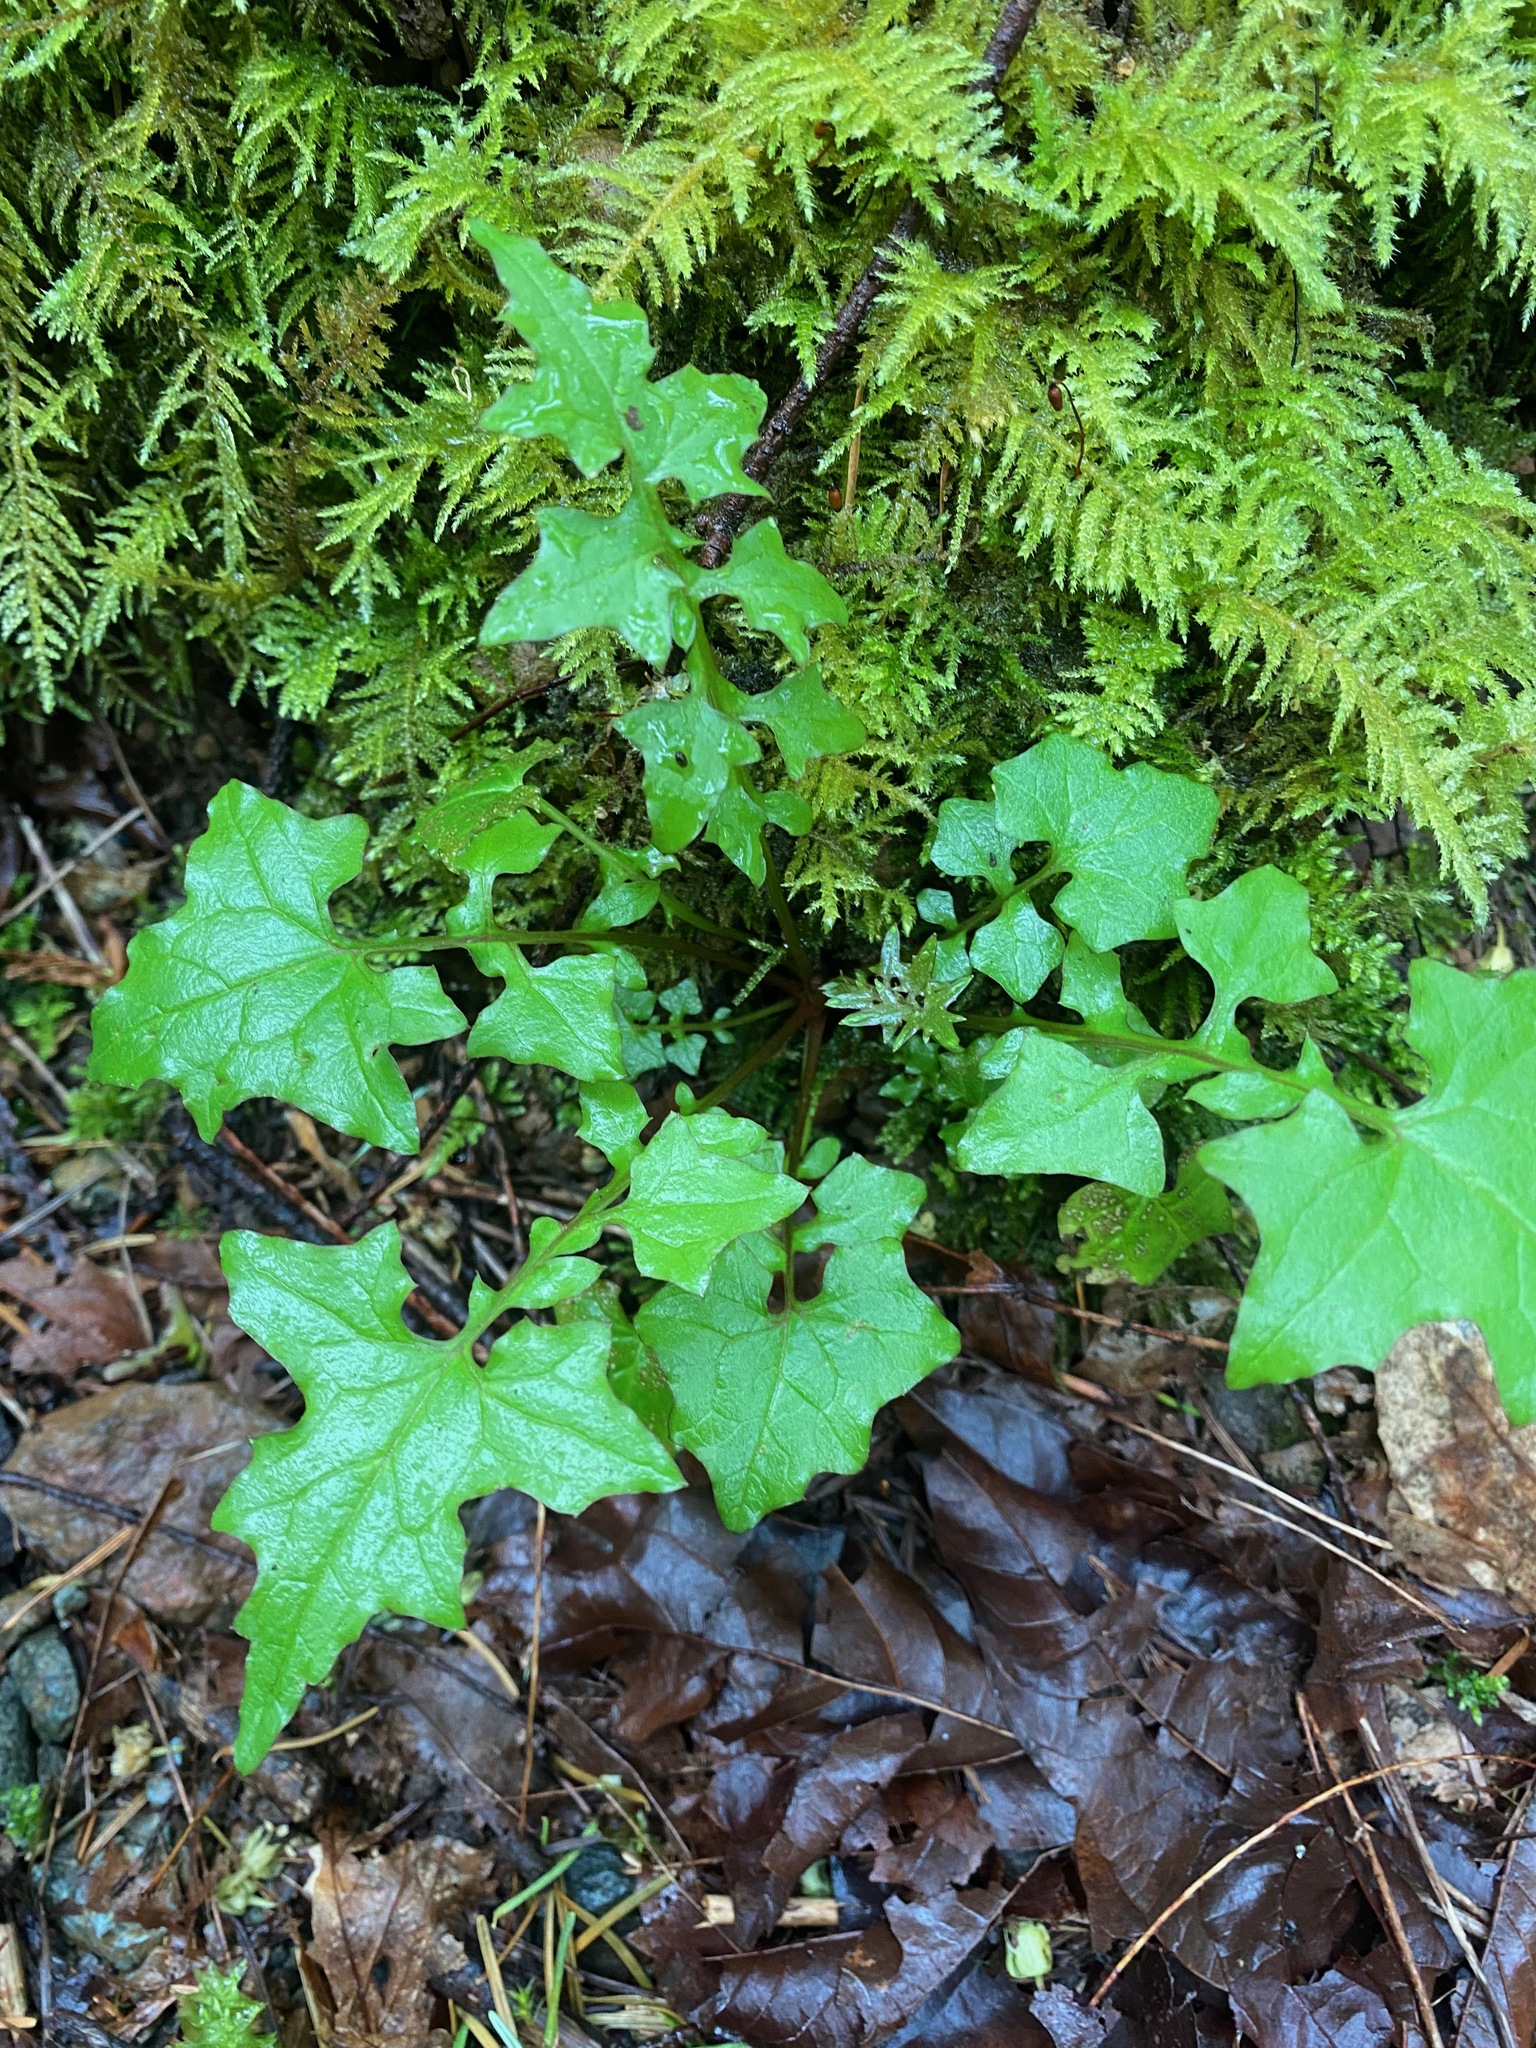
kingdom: Plantae
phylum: Tracheophyta
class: Magnoliopsida
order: Asterales
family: Asteraceae
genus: Mycelis
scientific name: Mycelis muralis
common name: Wall lettuce
